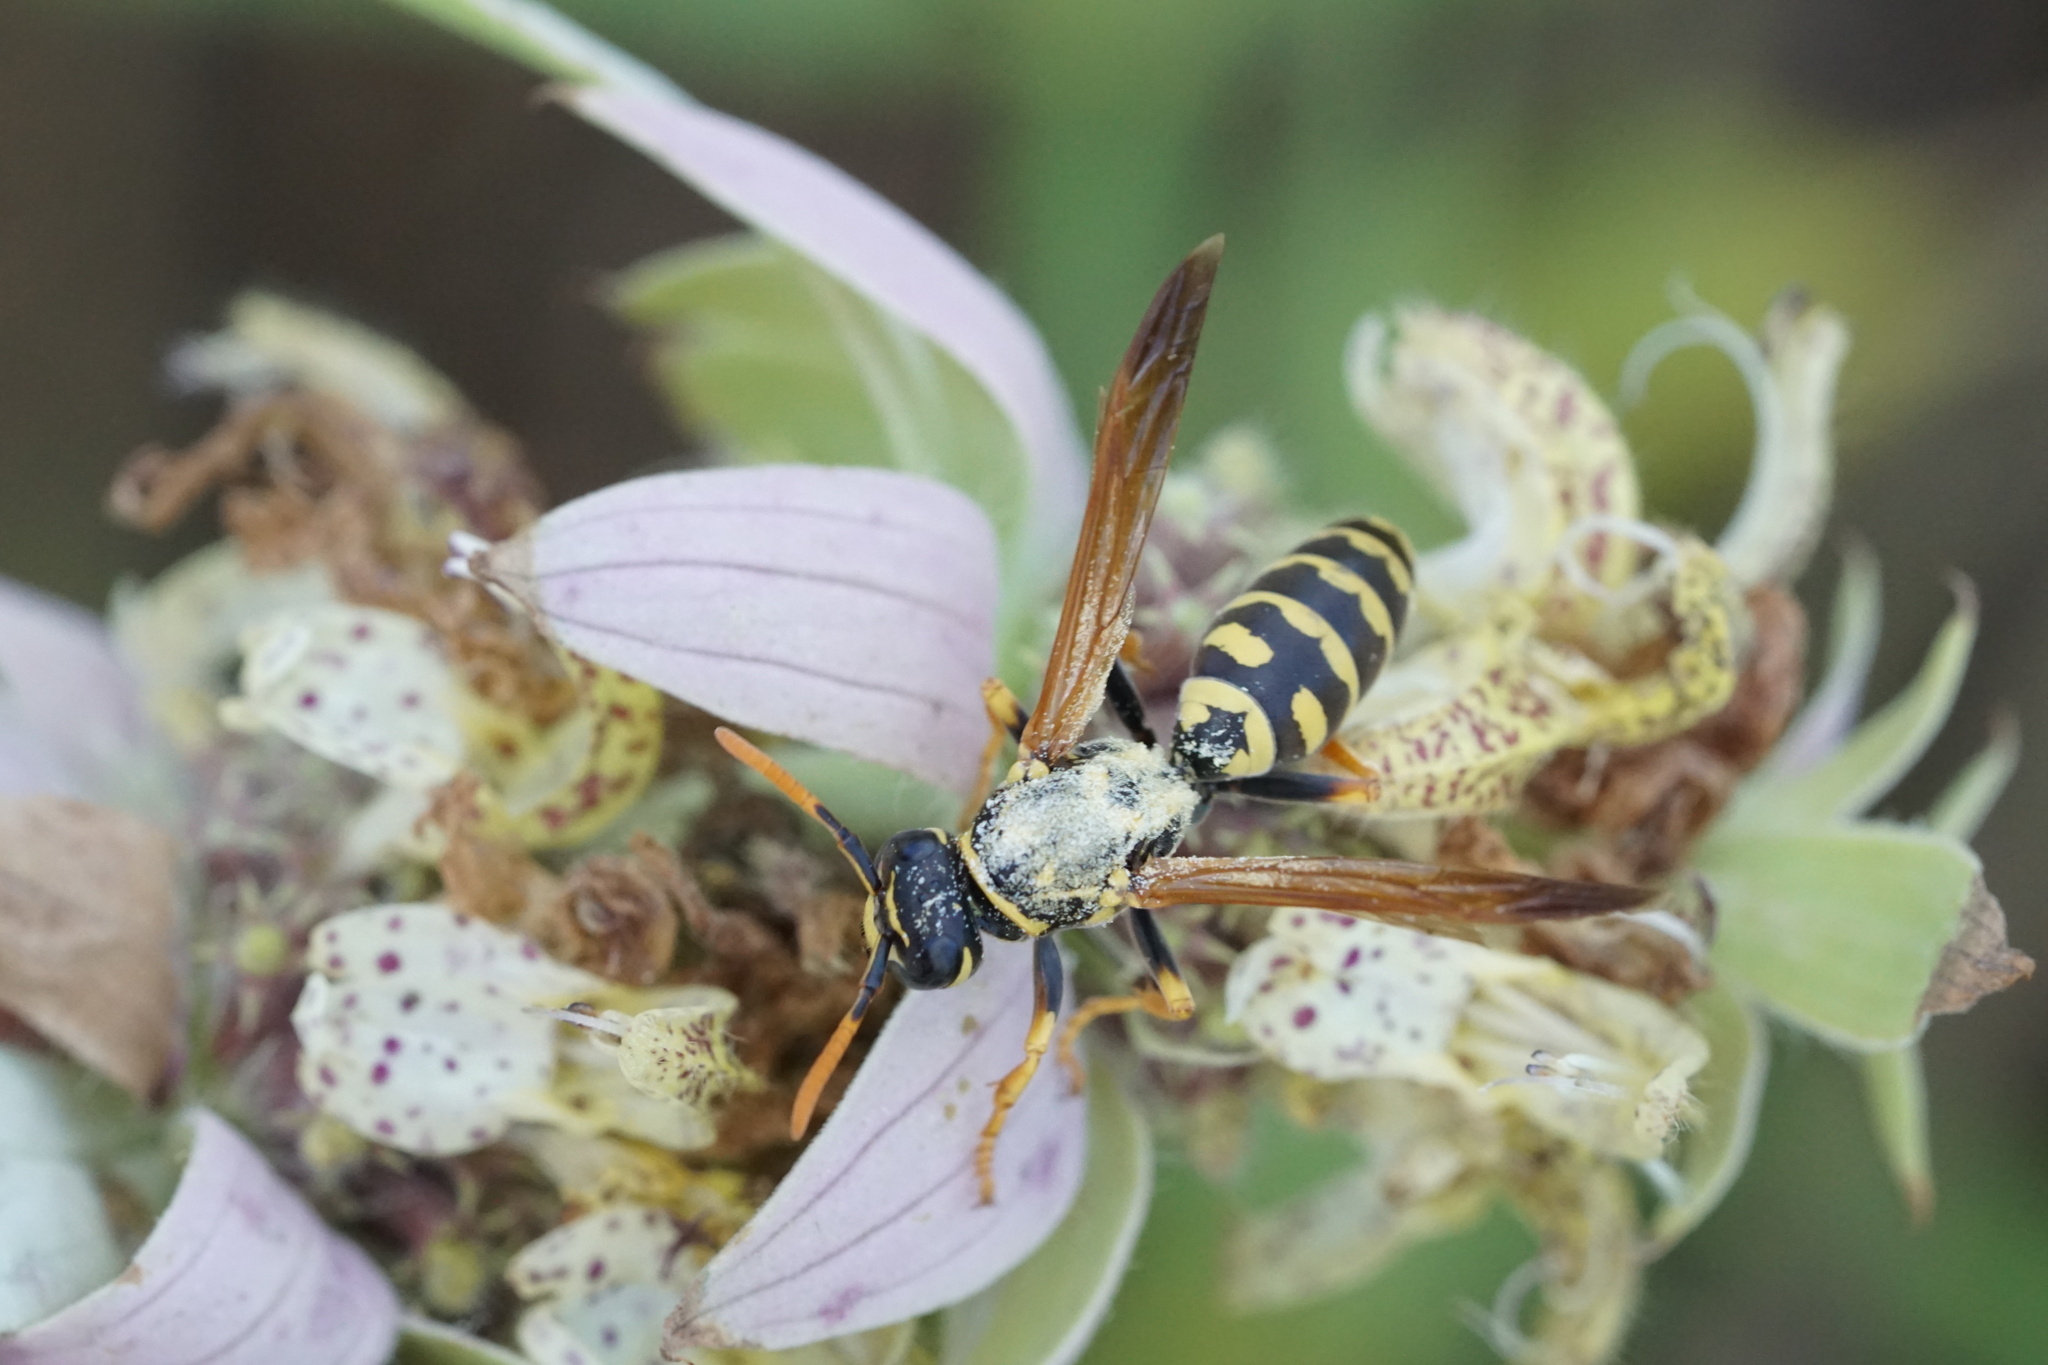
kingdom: Animalia
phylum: Arthropoda
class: Insecta
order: Hymenoptera
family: Eumenidae
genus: Polistes
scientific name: Polistes dominula
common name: Paper wasp
